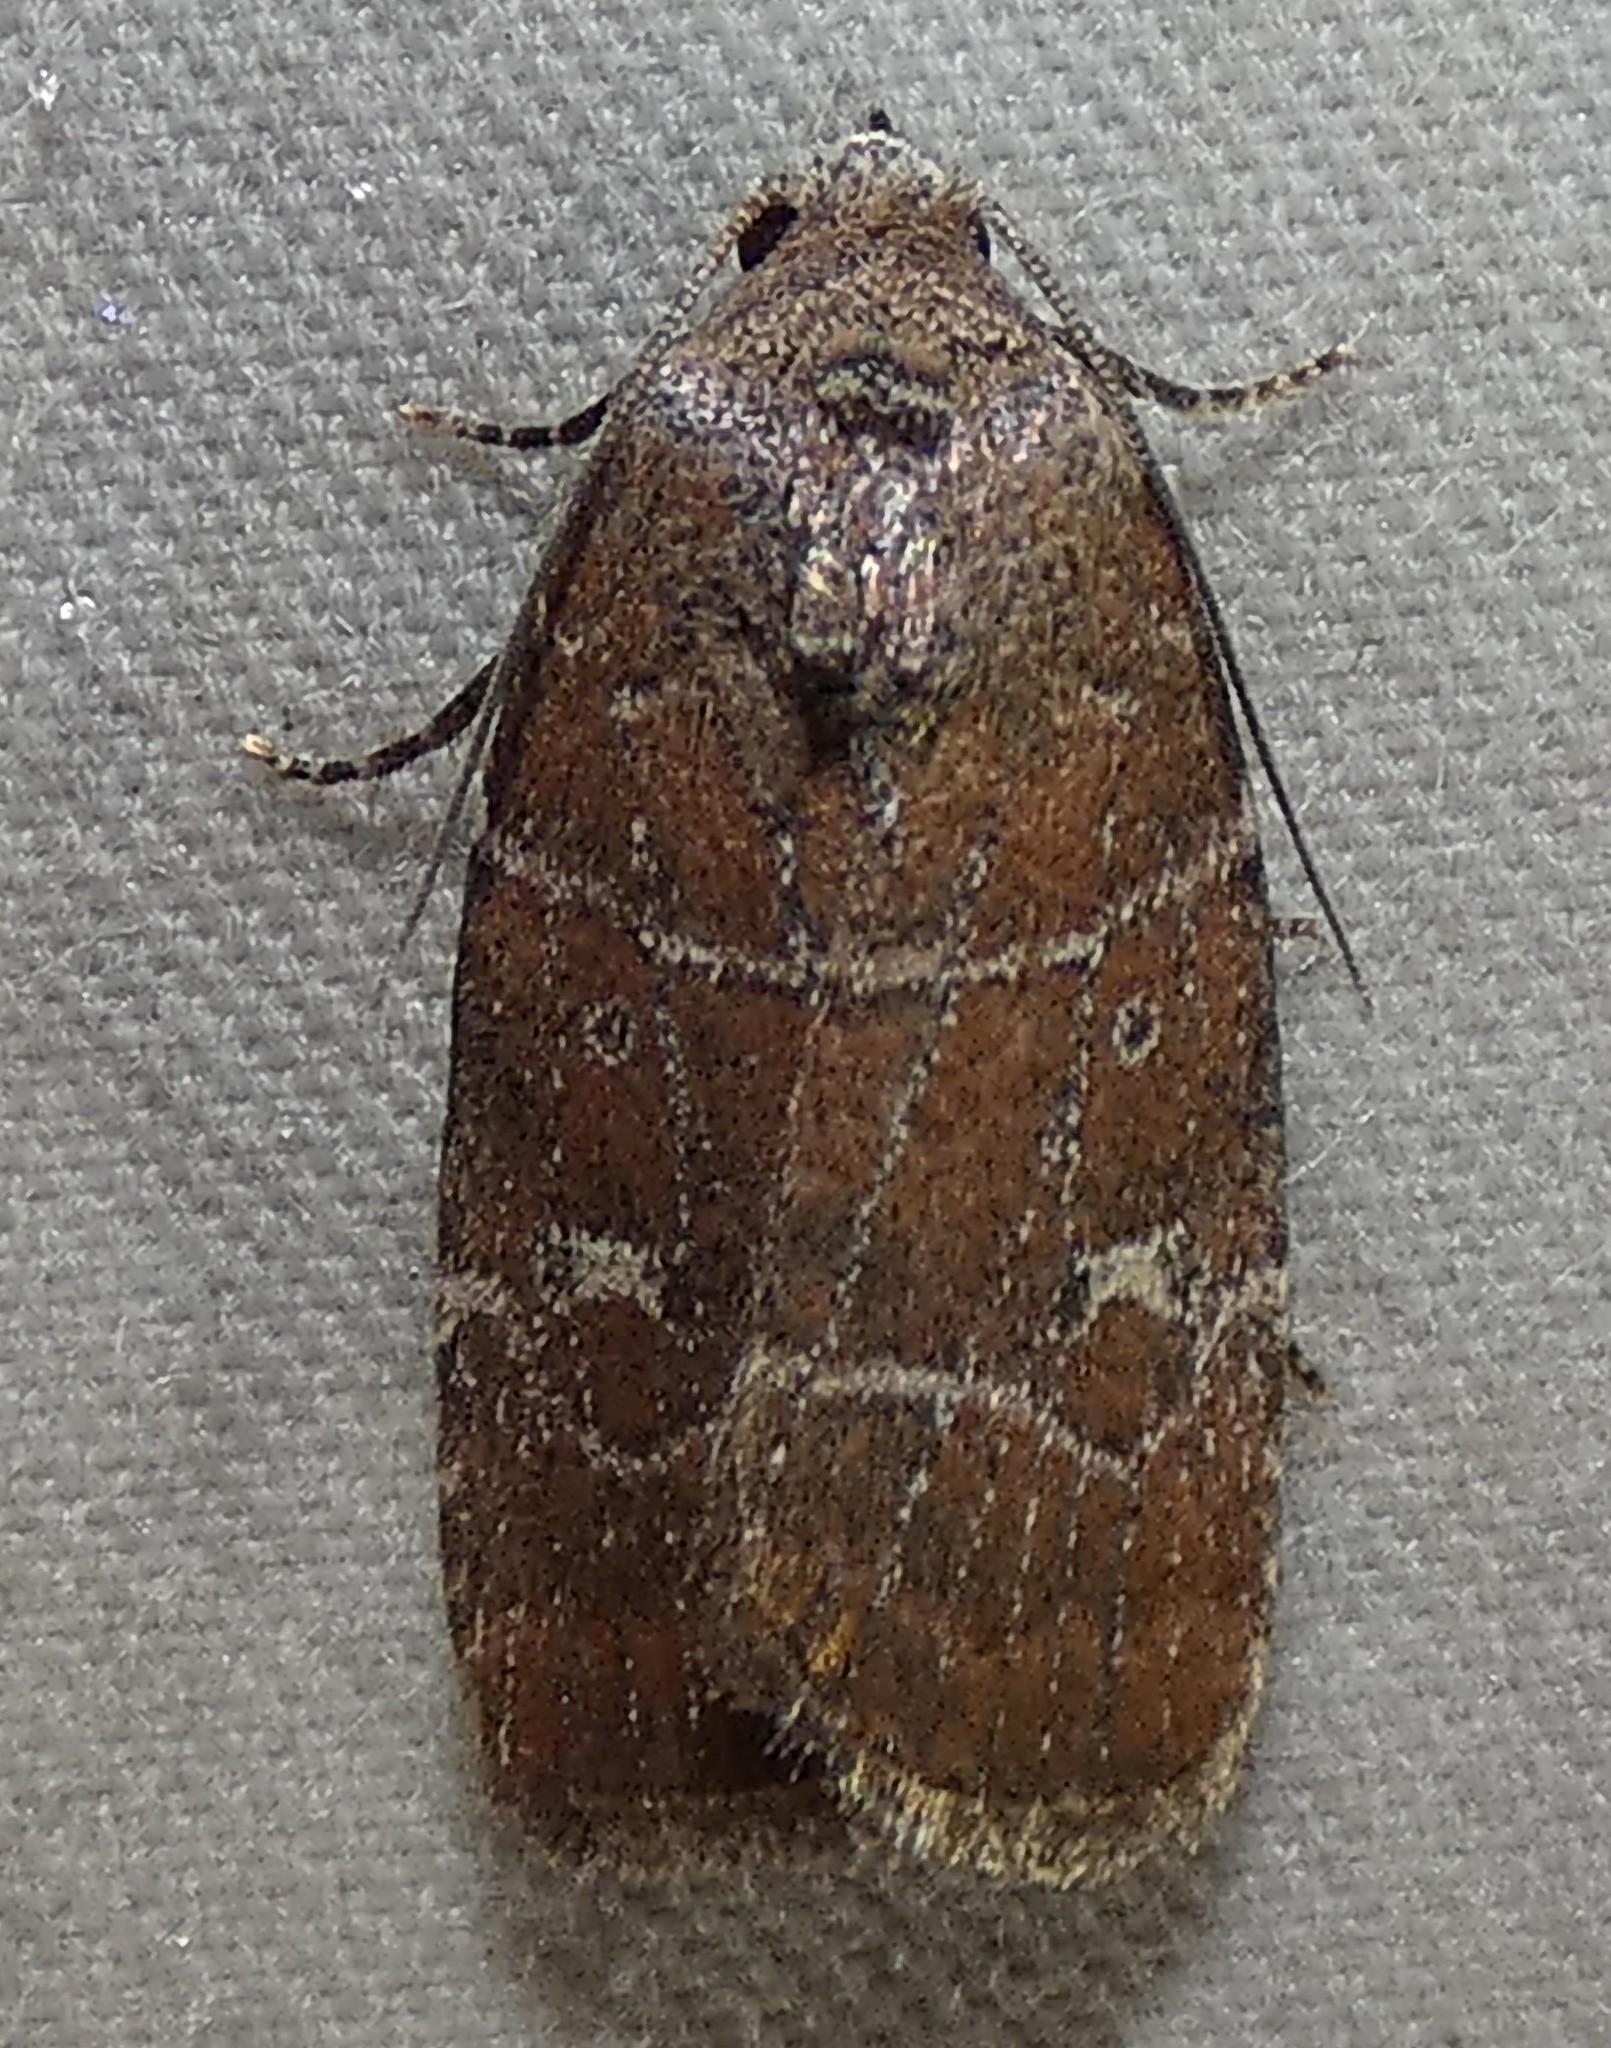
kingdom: Animalia
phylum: Arthropoda
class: Insecta
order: Lepidoptera
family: Noctuidae
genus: Elaphria
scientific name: Elaphria grata
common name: Grateful midget moth
